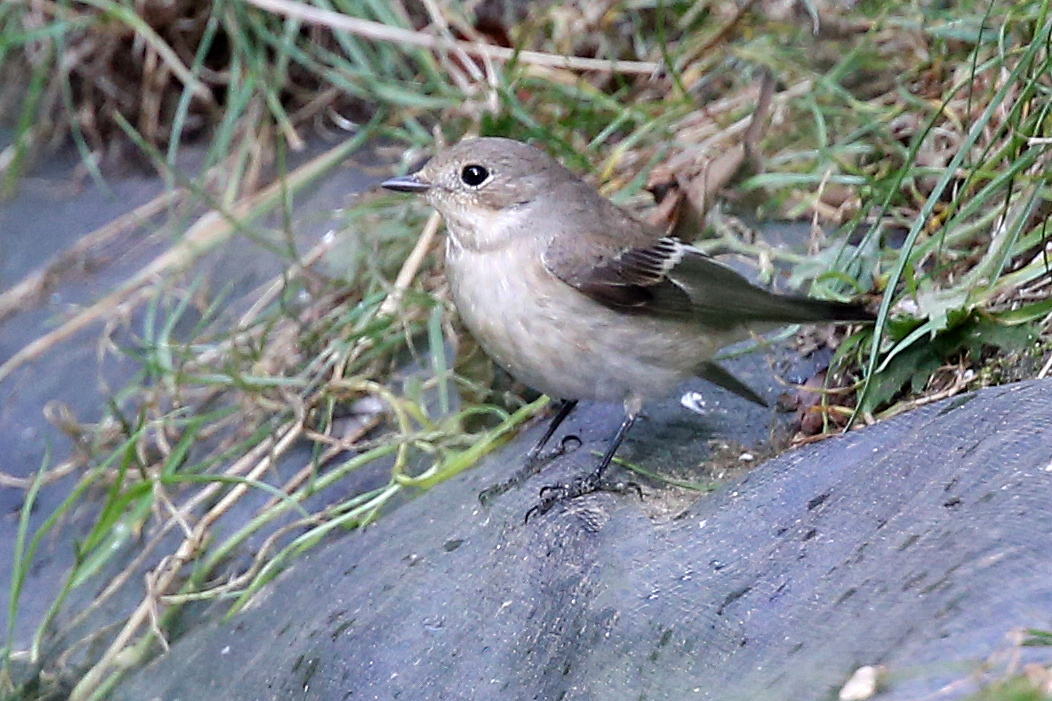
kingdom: Animalia
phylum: Chordata
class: Aves
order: Passeriformes
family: Muscicapidae
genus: Ficedula
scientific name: Ficedula hypoleuca
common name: European pied flycatcher
